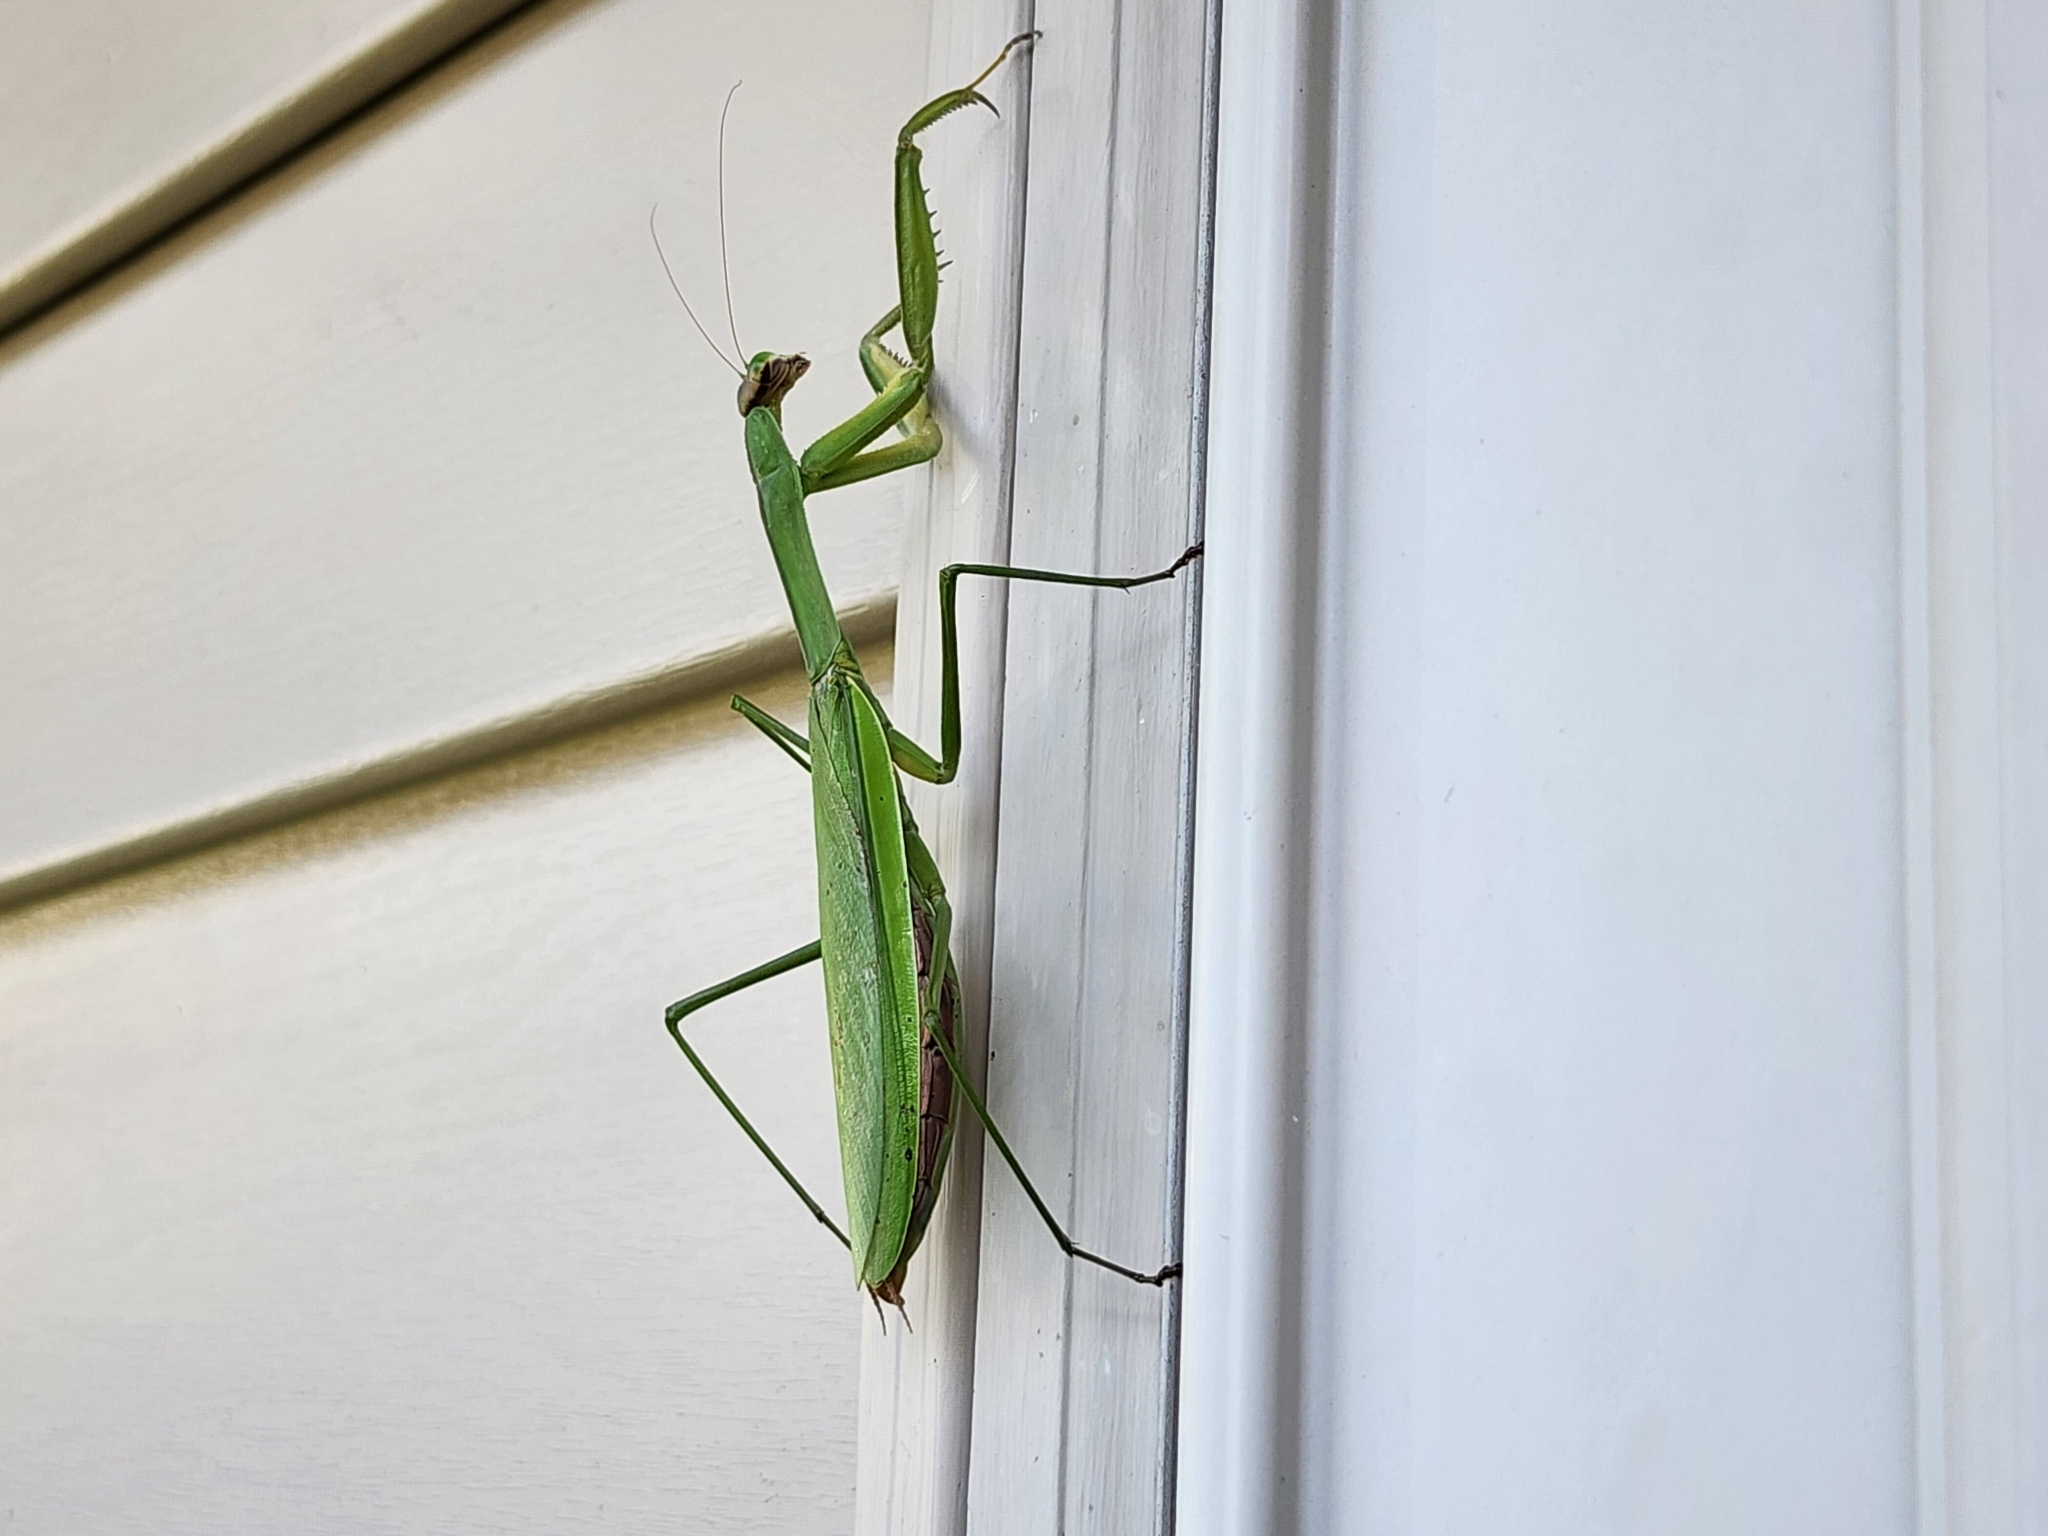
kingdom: Animalia
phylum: Arthropoda
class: Insecta
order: Mantodea
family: Mantidae
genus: Tenodera
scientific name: Tenodera sinensis
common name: Chinese mantis
